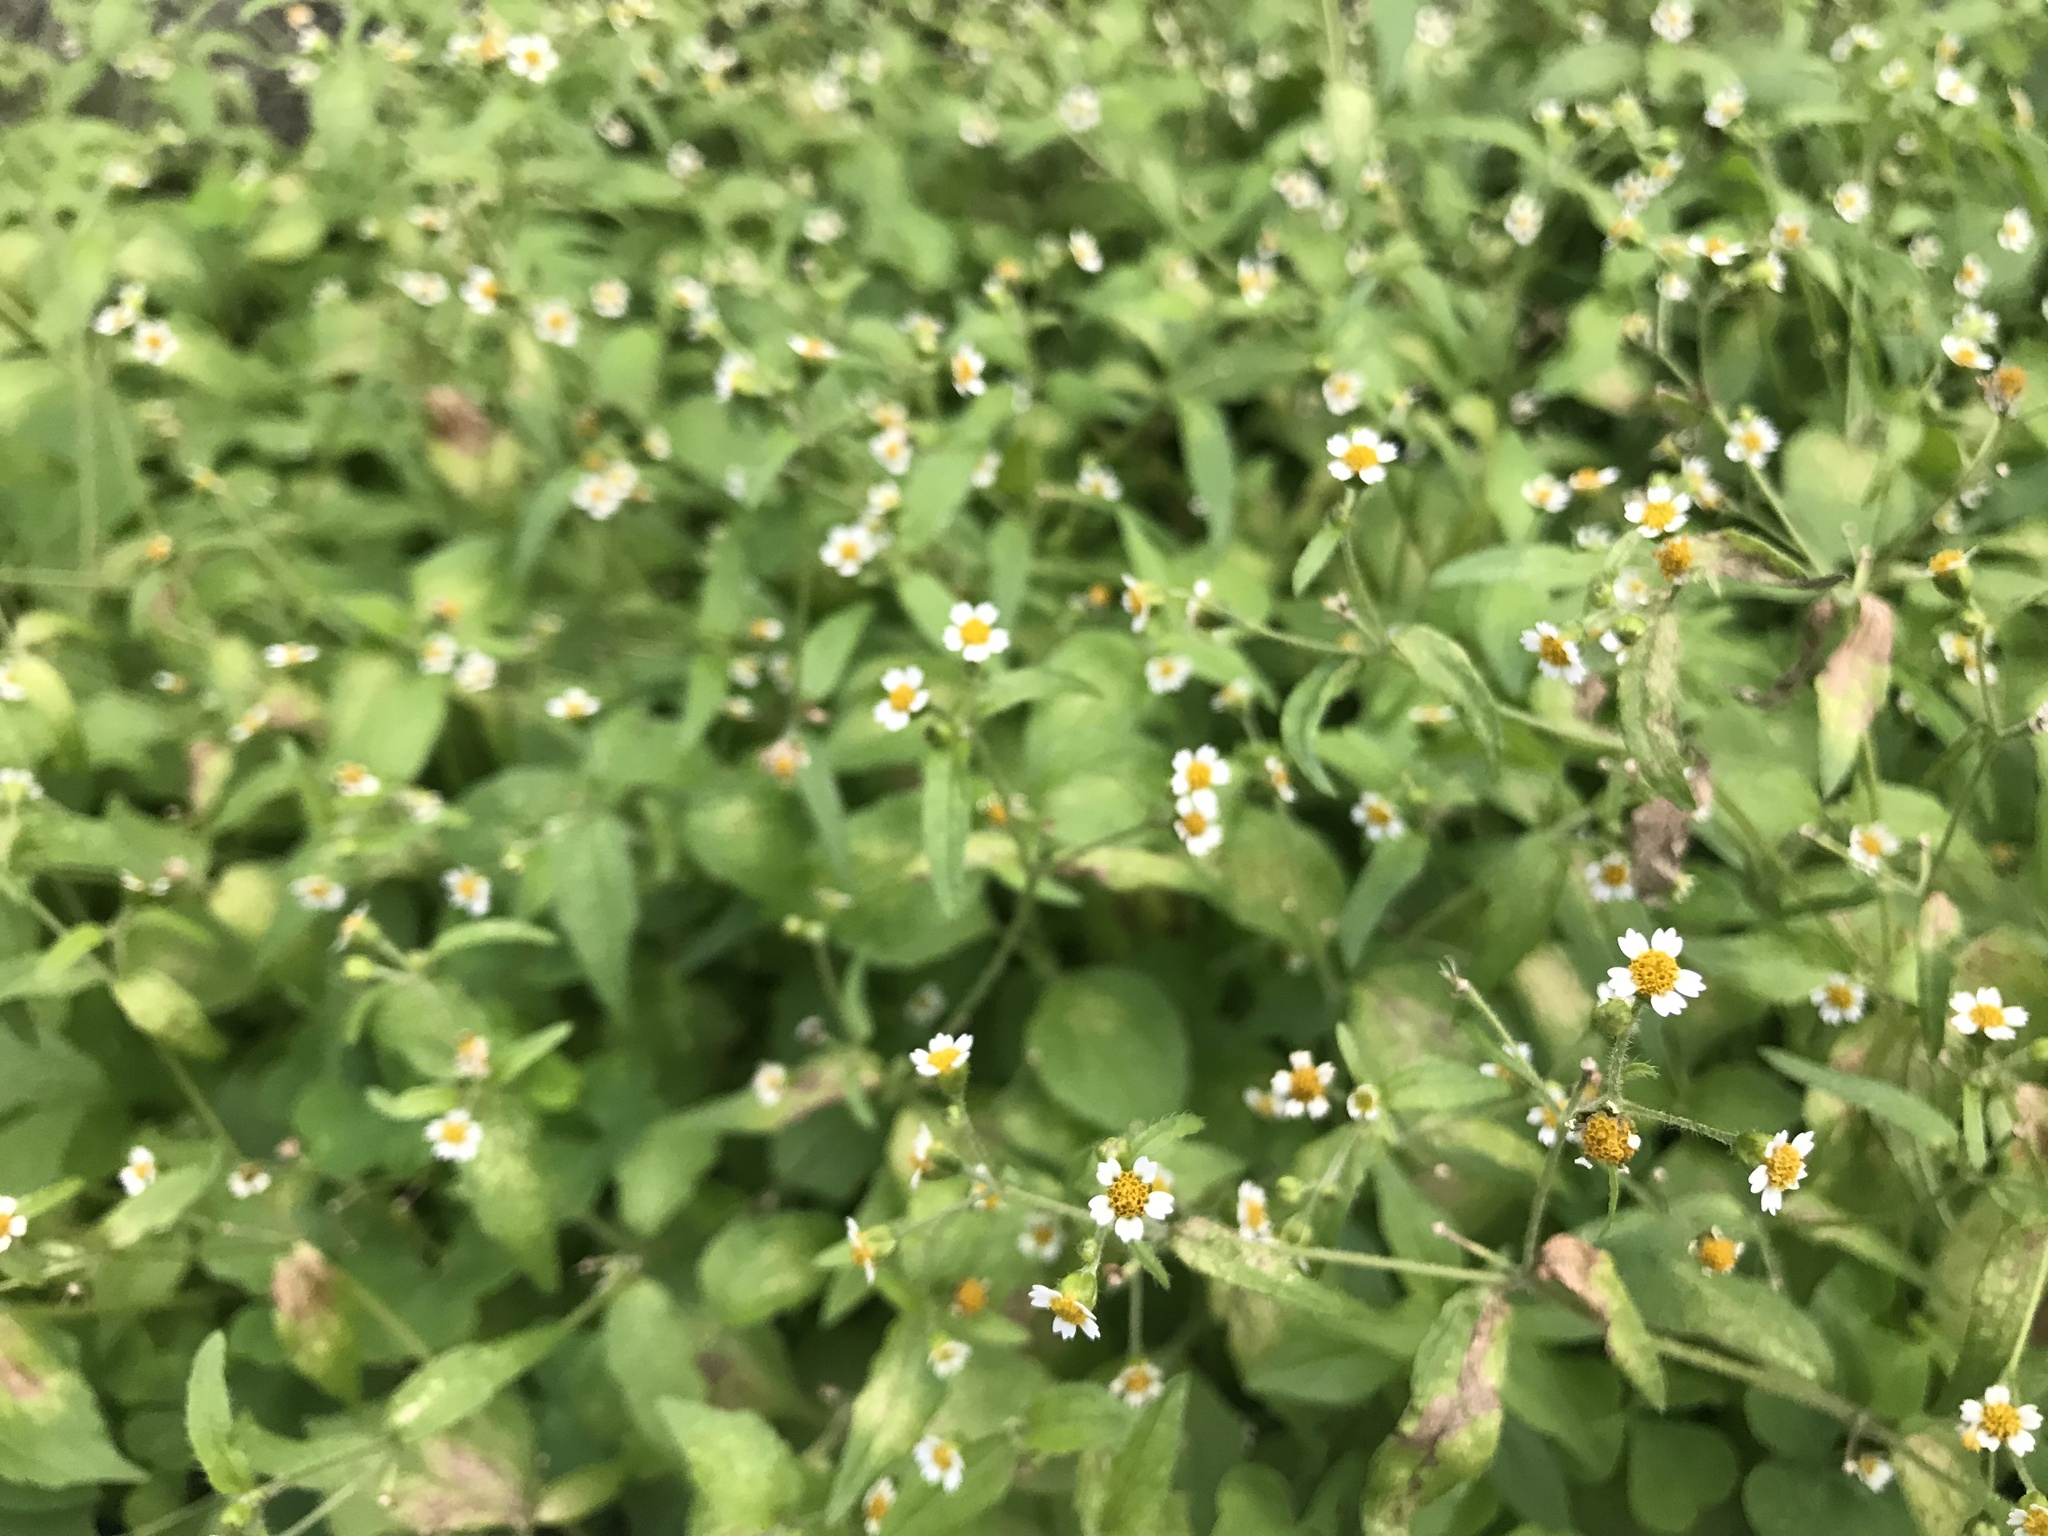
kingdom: Plantae
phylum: Tracheophyta
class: Magnoliopsida
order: Asterales
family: Asteraceae
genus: Galinsoga
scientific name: Galinsoga quadriradiata
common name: Shaggy soldier
